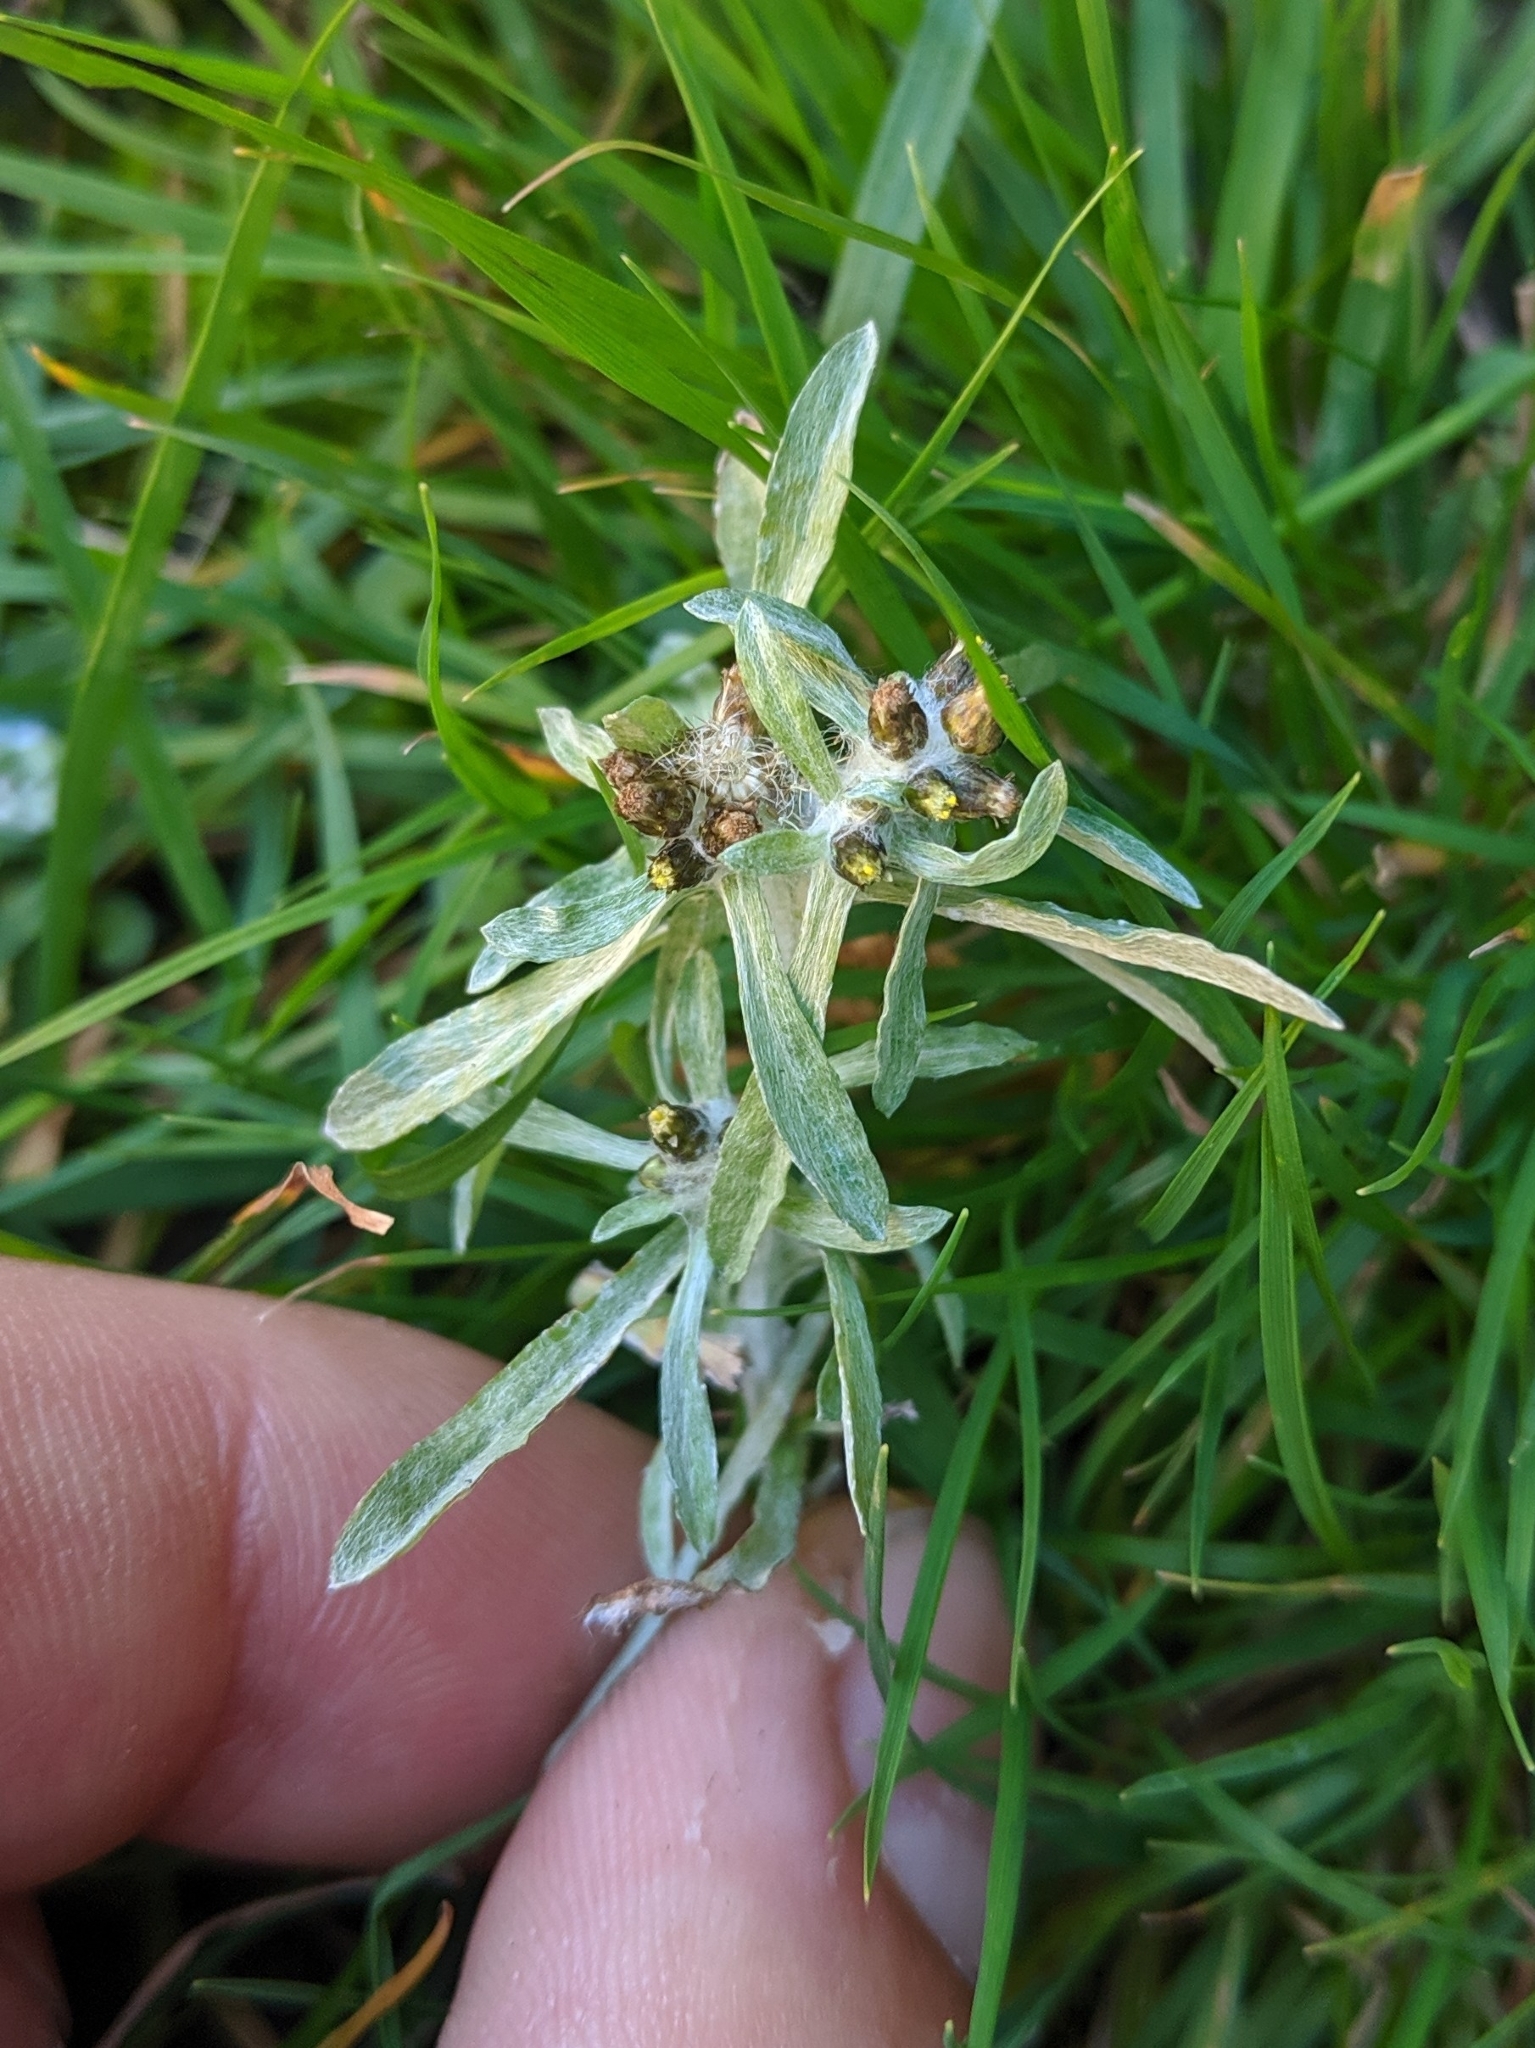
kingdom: Plantae
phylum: Tracheophyta
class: Magnoliopsida
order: Asterales
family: Asteraceae
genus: Gnaphalium
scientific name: Gnaphalium uliginosum
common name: Marsh cudweed
